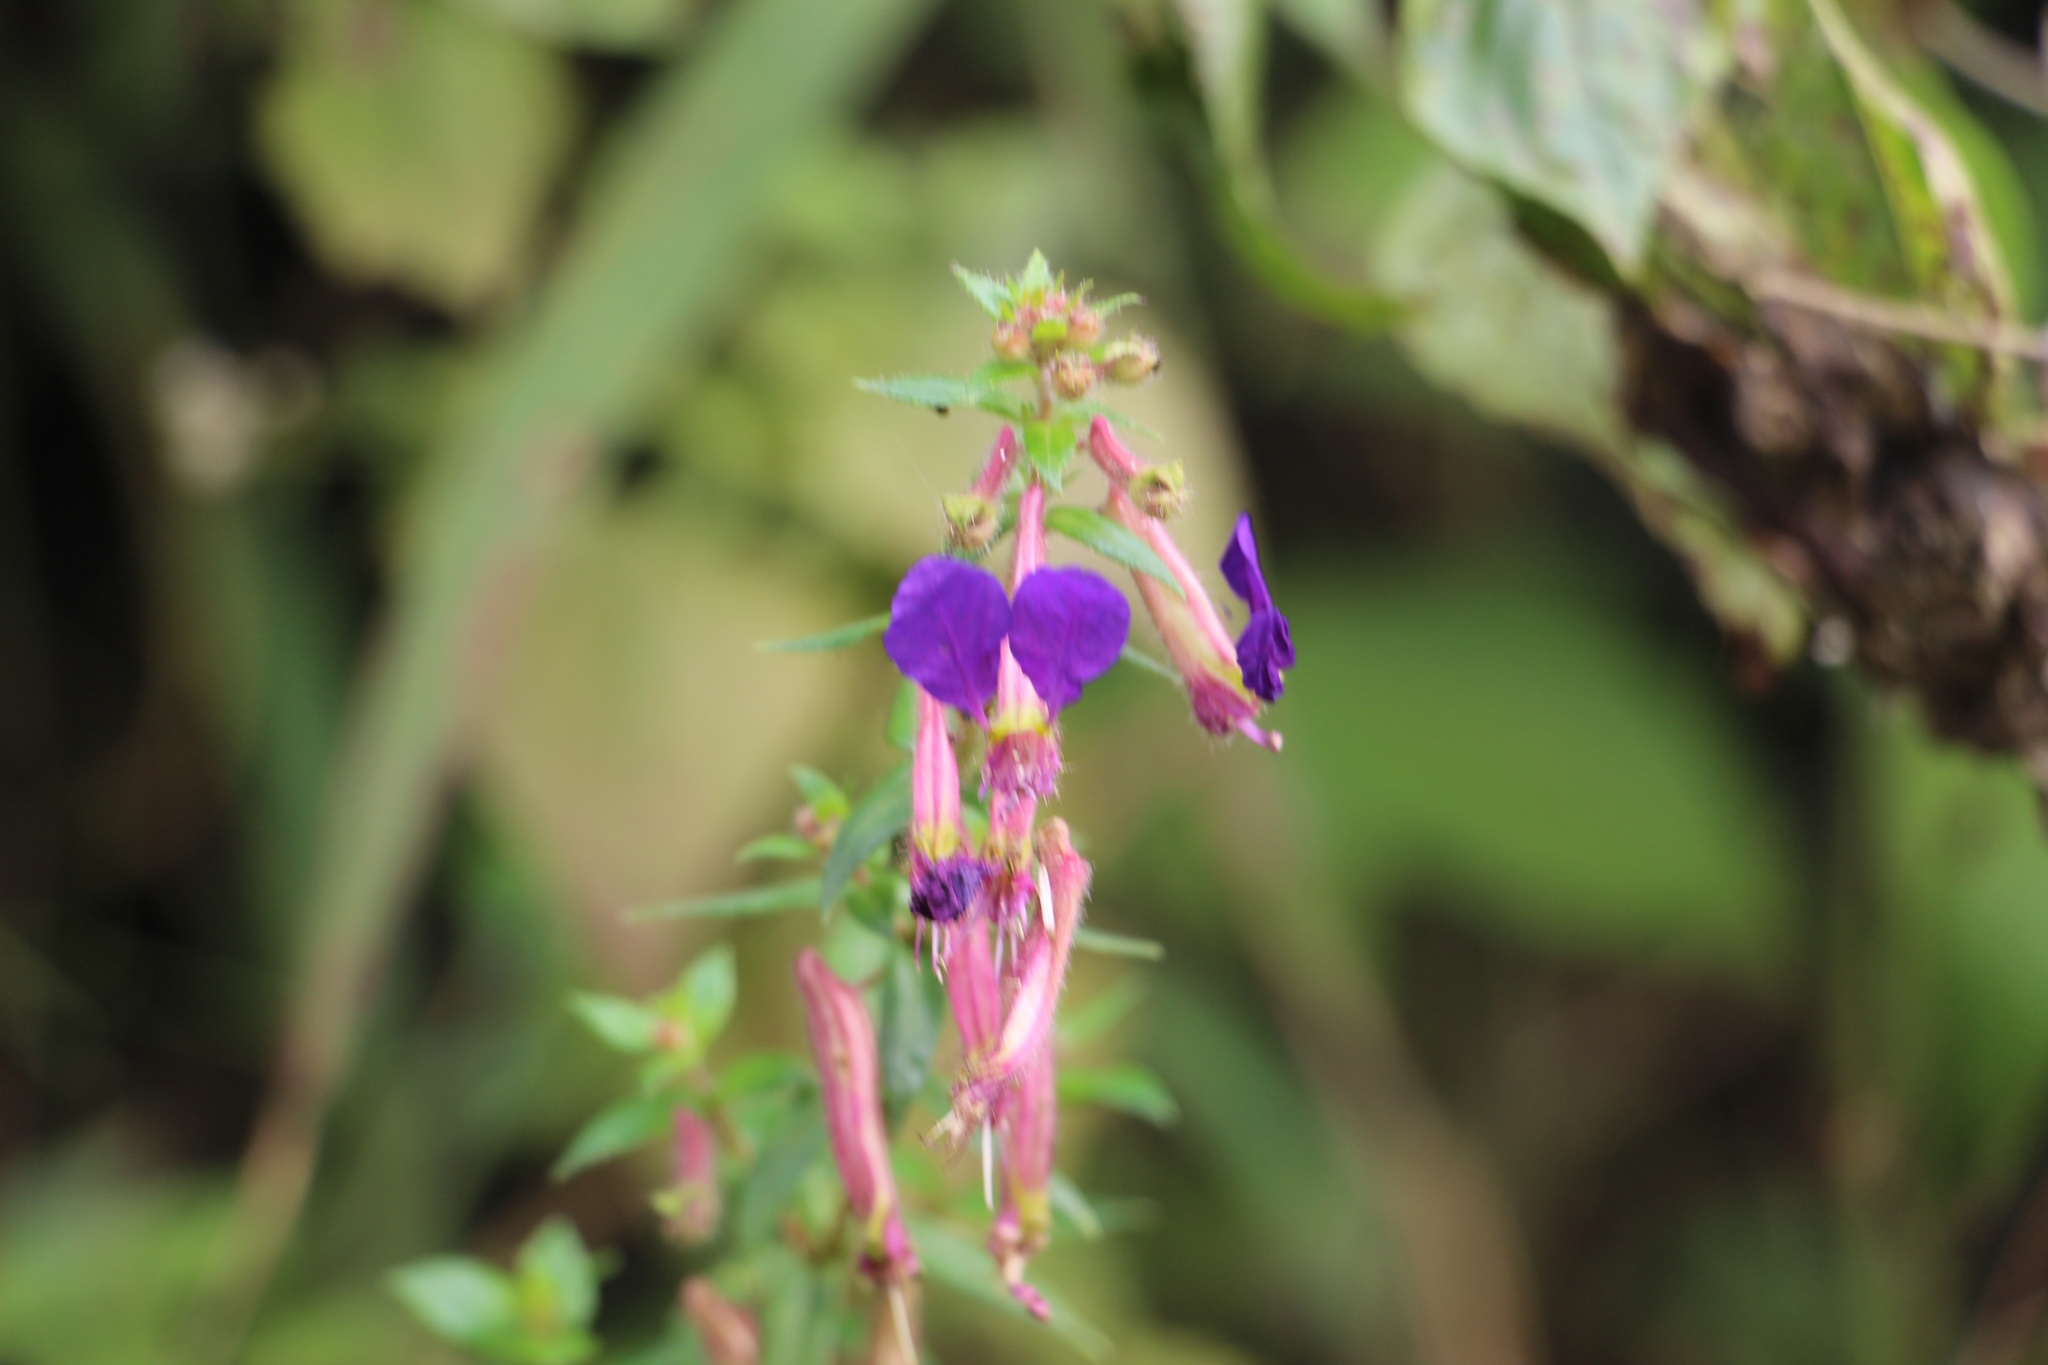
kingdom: Plantae
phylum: Tracheophyta
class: Magnoliopsida
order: Myrtales
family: Lythraceae
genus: Cuphea
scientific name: Cuphea dipetala
